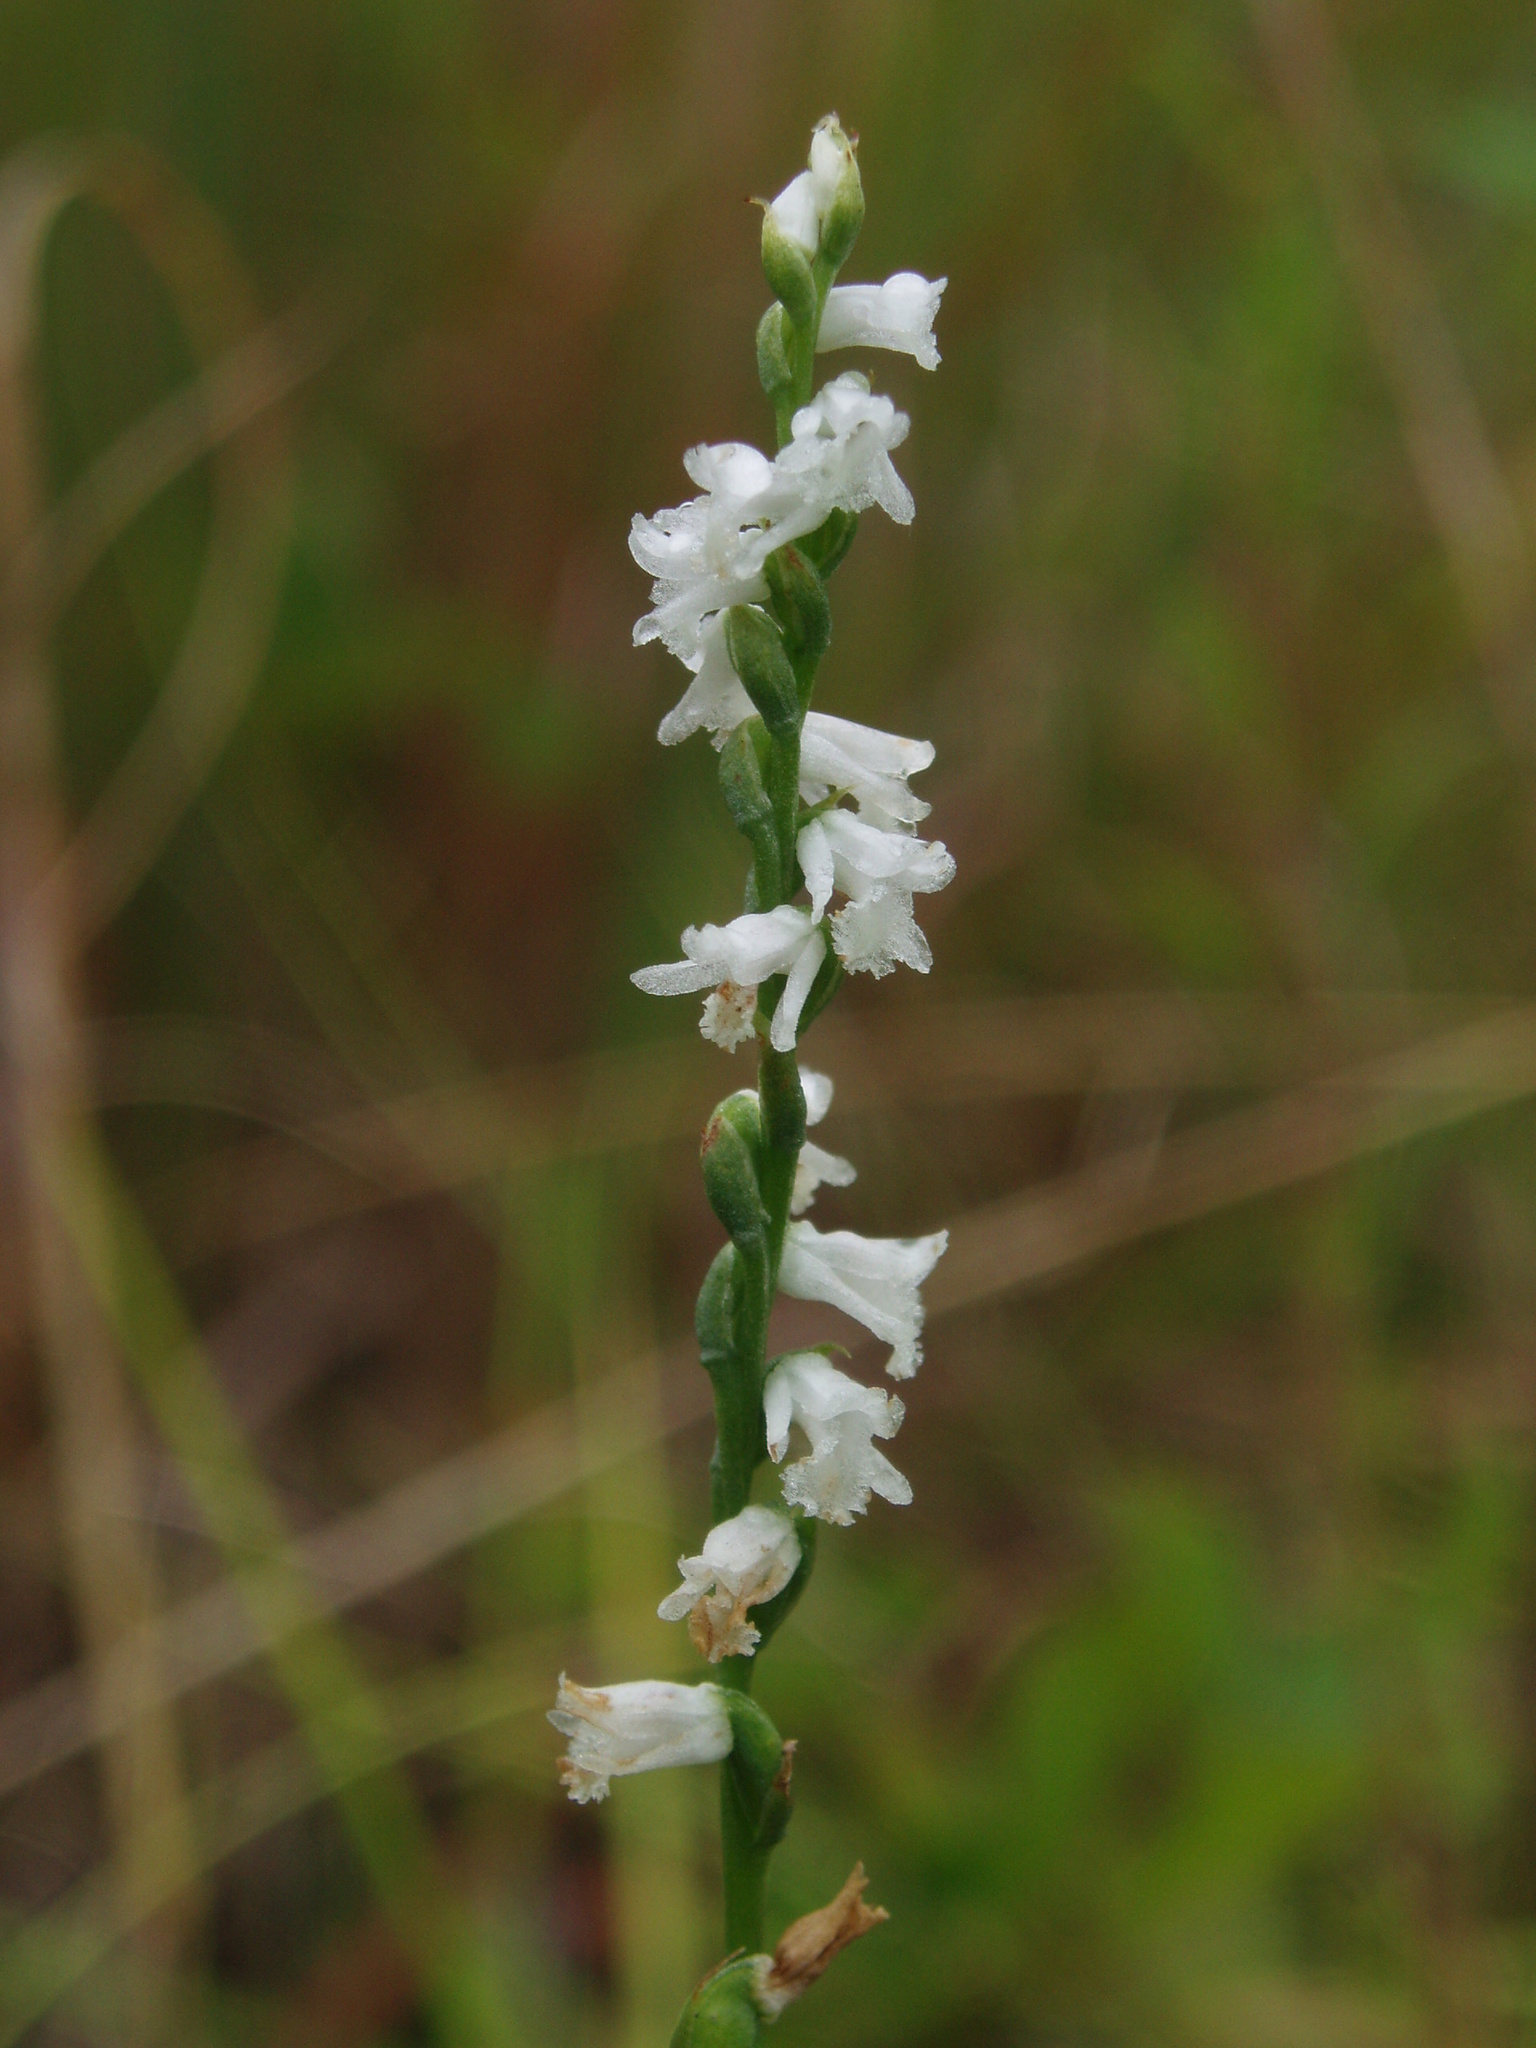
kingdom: Plantae
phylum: Tracheophyta
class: Liliopsida
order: Asparagales
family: Orchidaceae
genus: Spiranthes
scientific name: Spiranthes tuberosa
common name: Little ladies'-tresses
